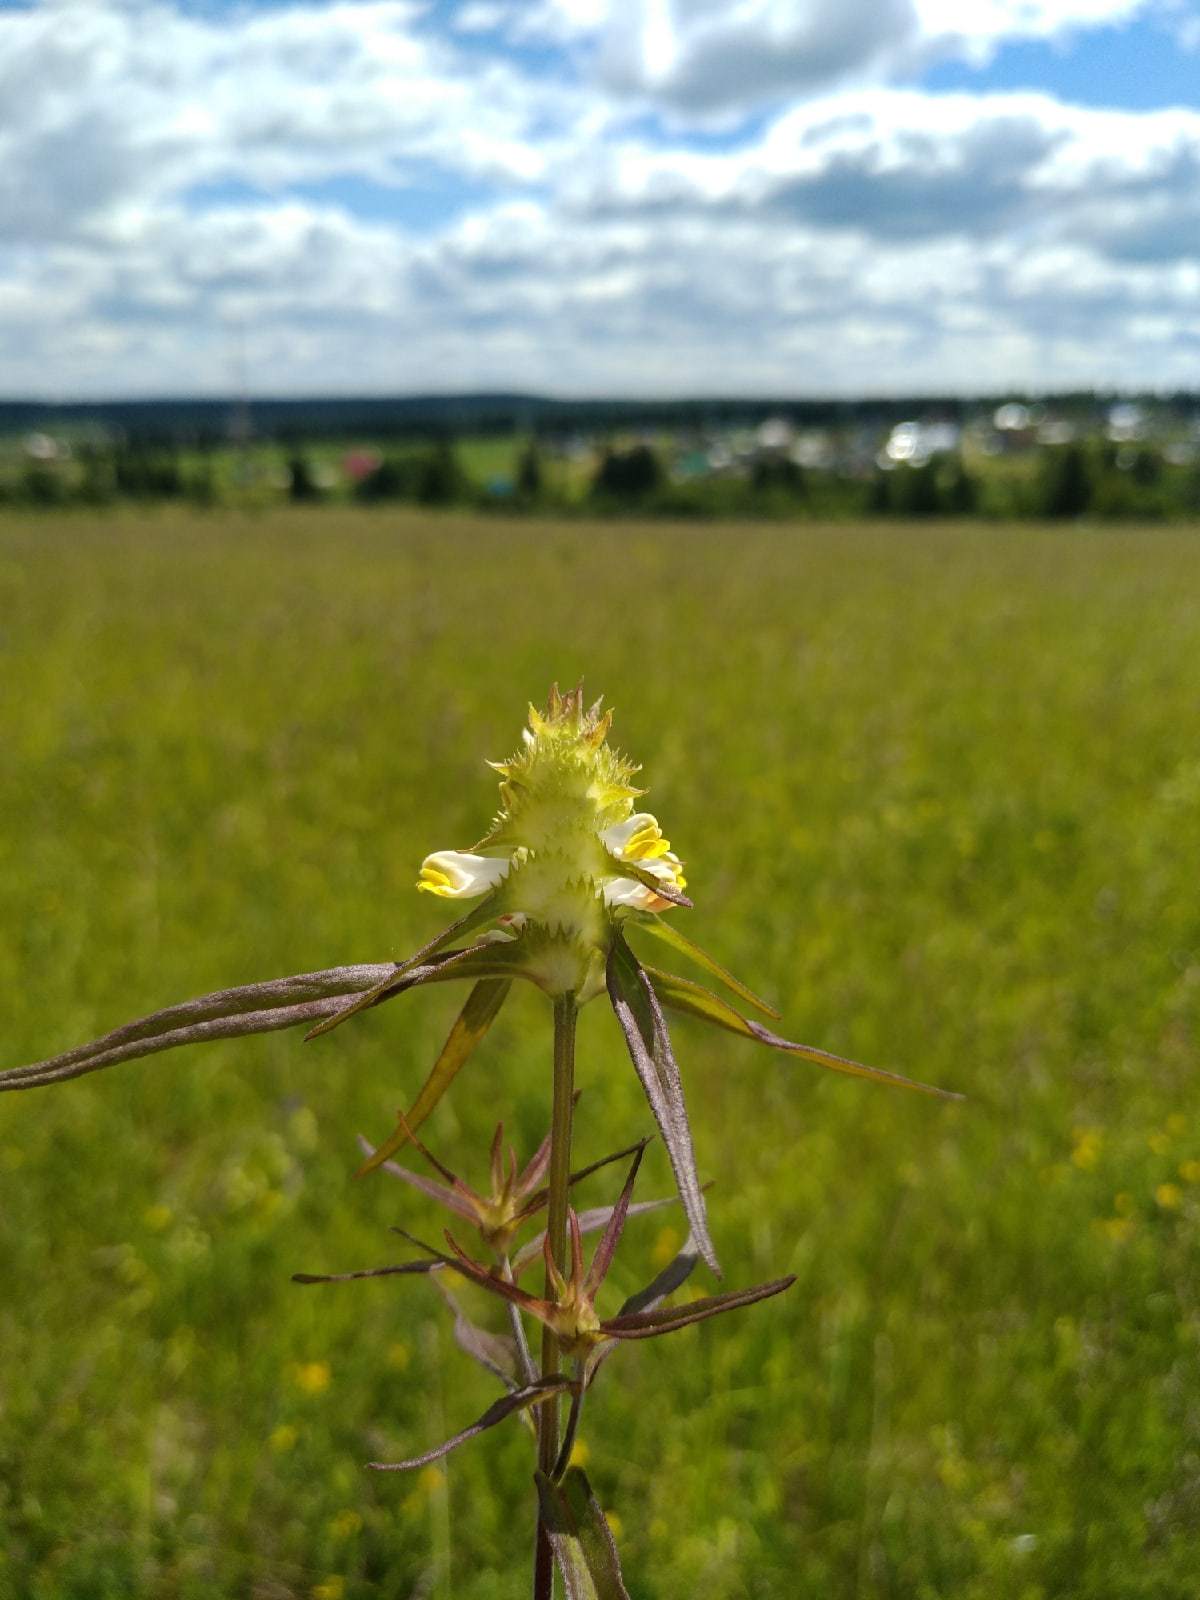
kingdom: Plantae
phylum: Tracheophyta
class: Magnoliopsida
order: Lamiales
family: Orobanchaceae
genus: Melampyrum
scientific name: Melampyrum cristatum
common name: Crested cow-wheat
